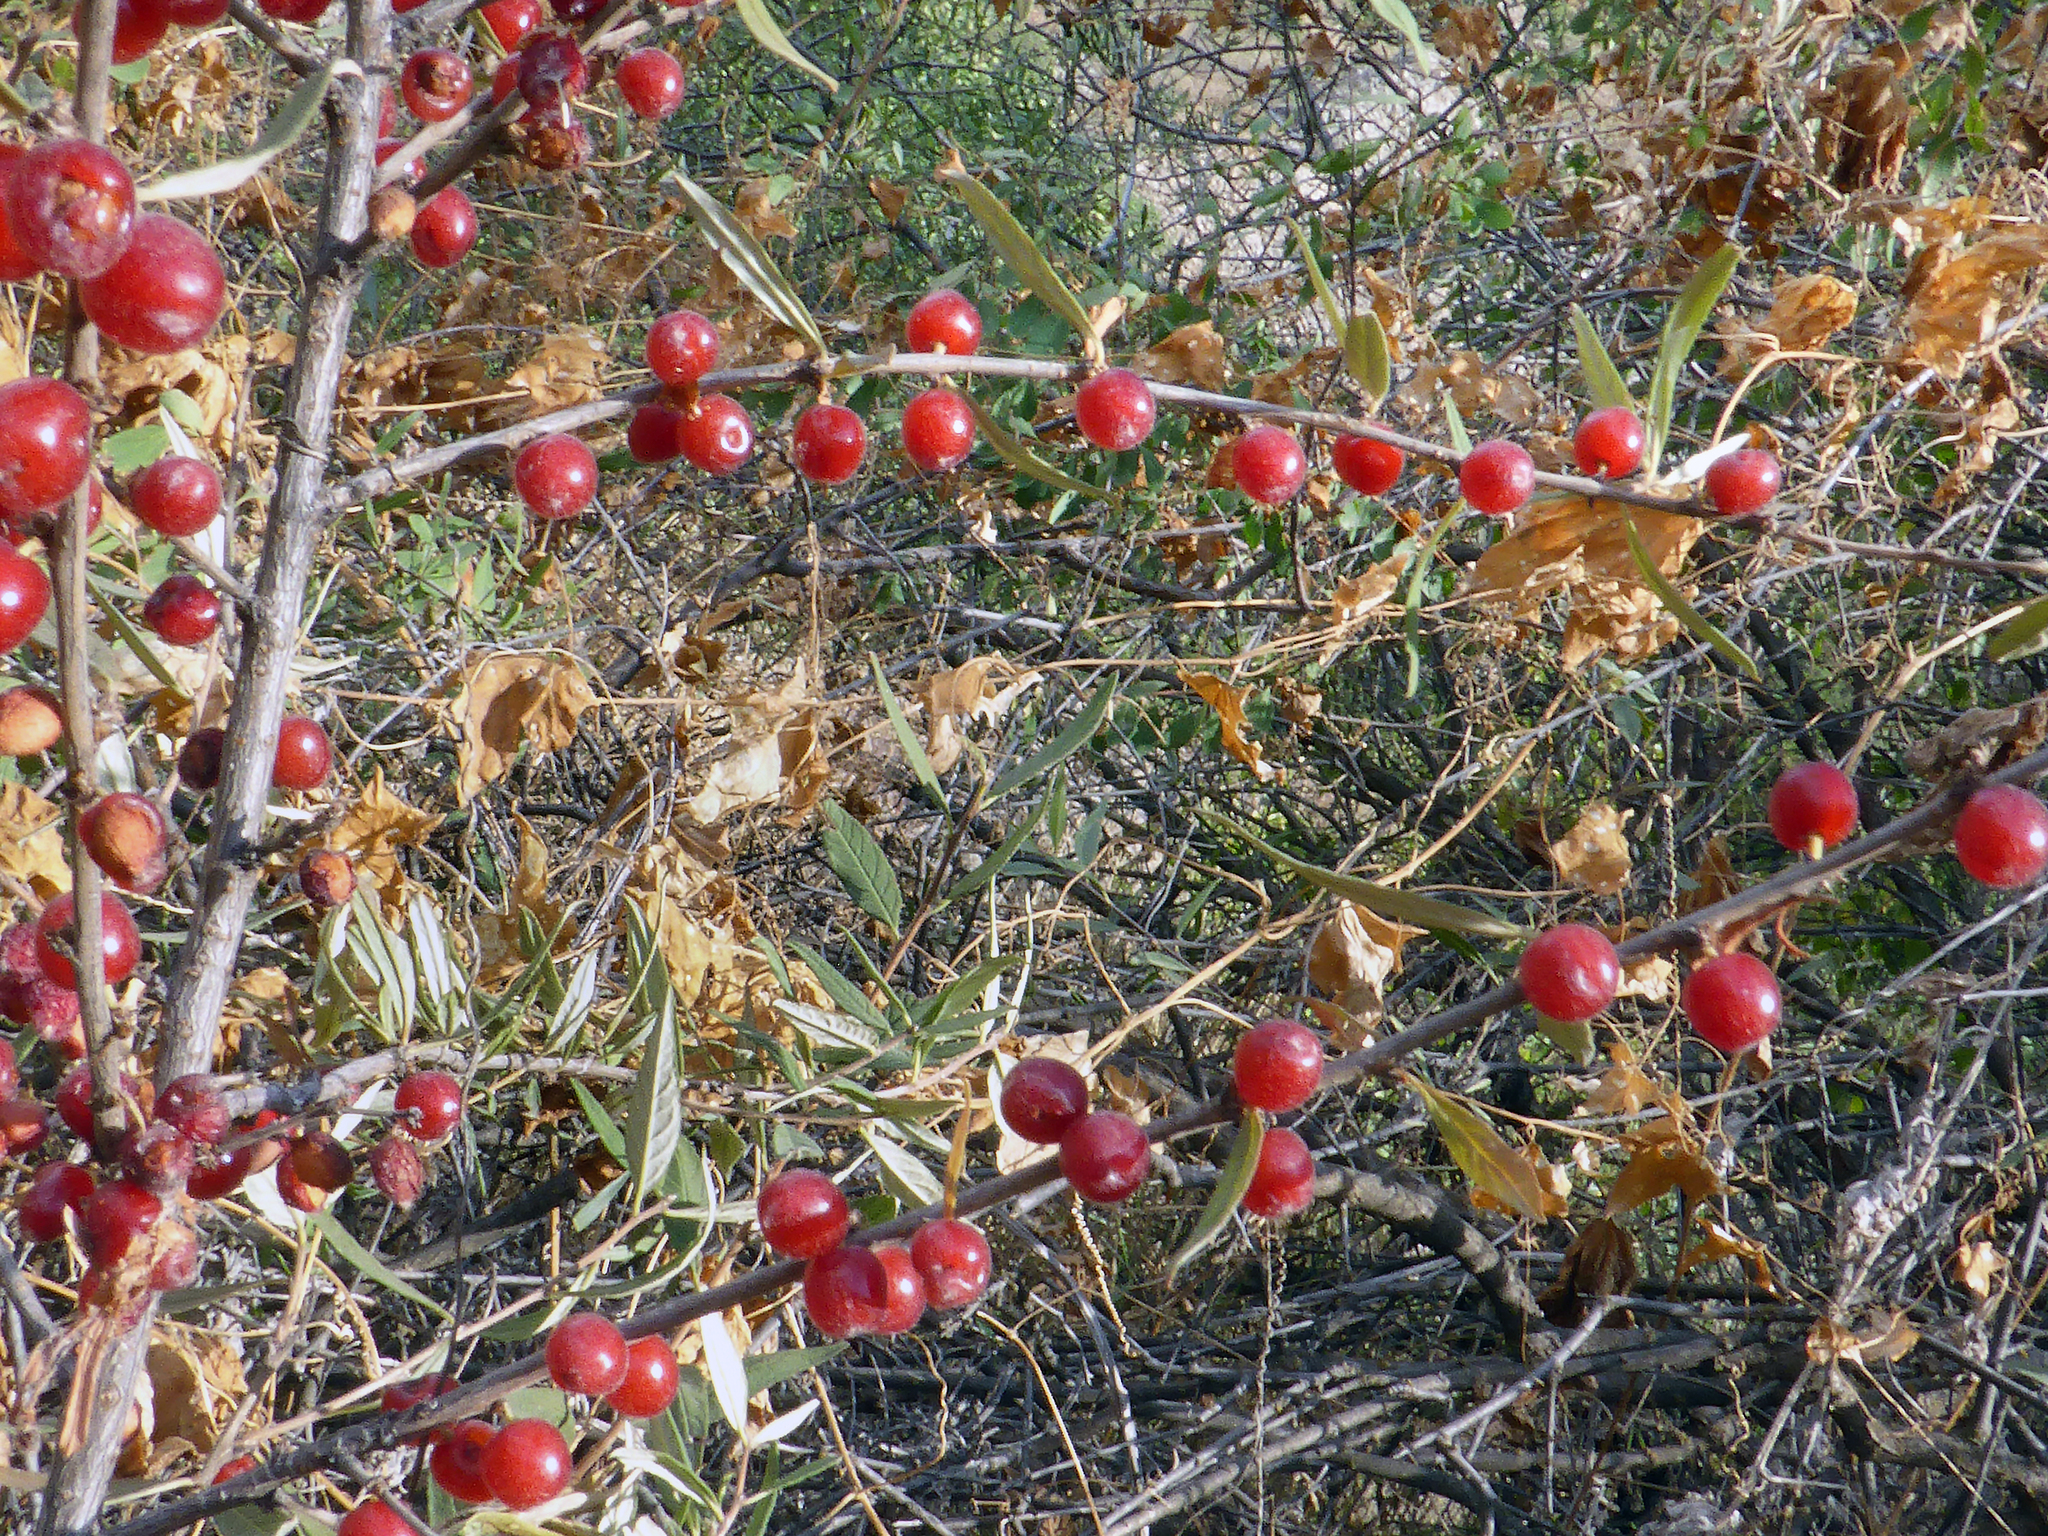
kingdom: Plantae
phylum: Tracheophyta
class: Magnoliopsida
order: Rosales
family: Rosaceae
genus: Prunus
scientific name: Prunus incana
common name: Willow cherry
